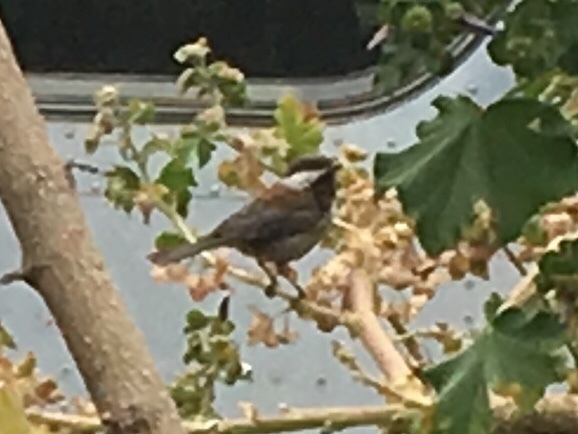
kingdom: Animalia
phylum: Chordata
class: Aves
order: Passeriformes
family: Paridae
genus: Poecile
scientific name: Poecile rufescens
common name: Chestnut-backed chickadee
